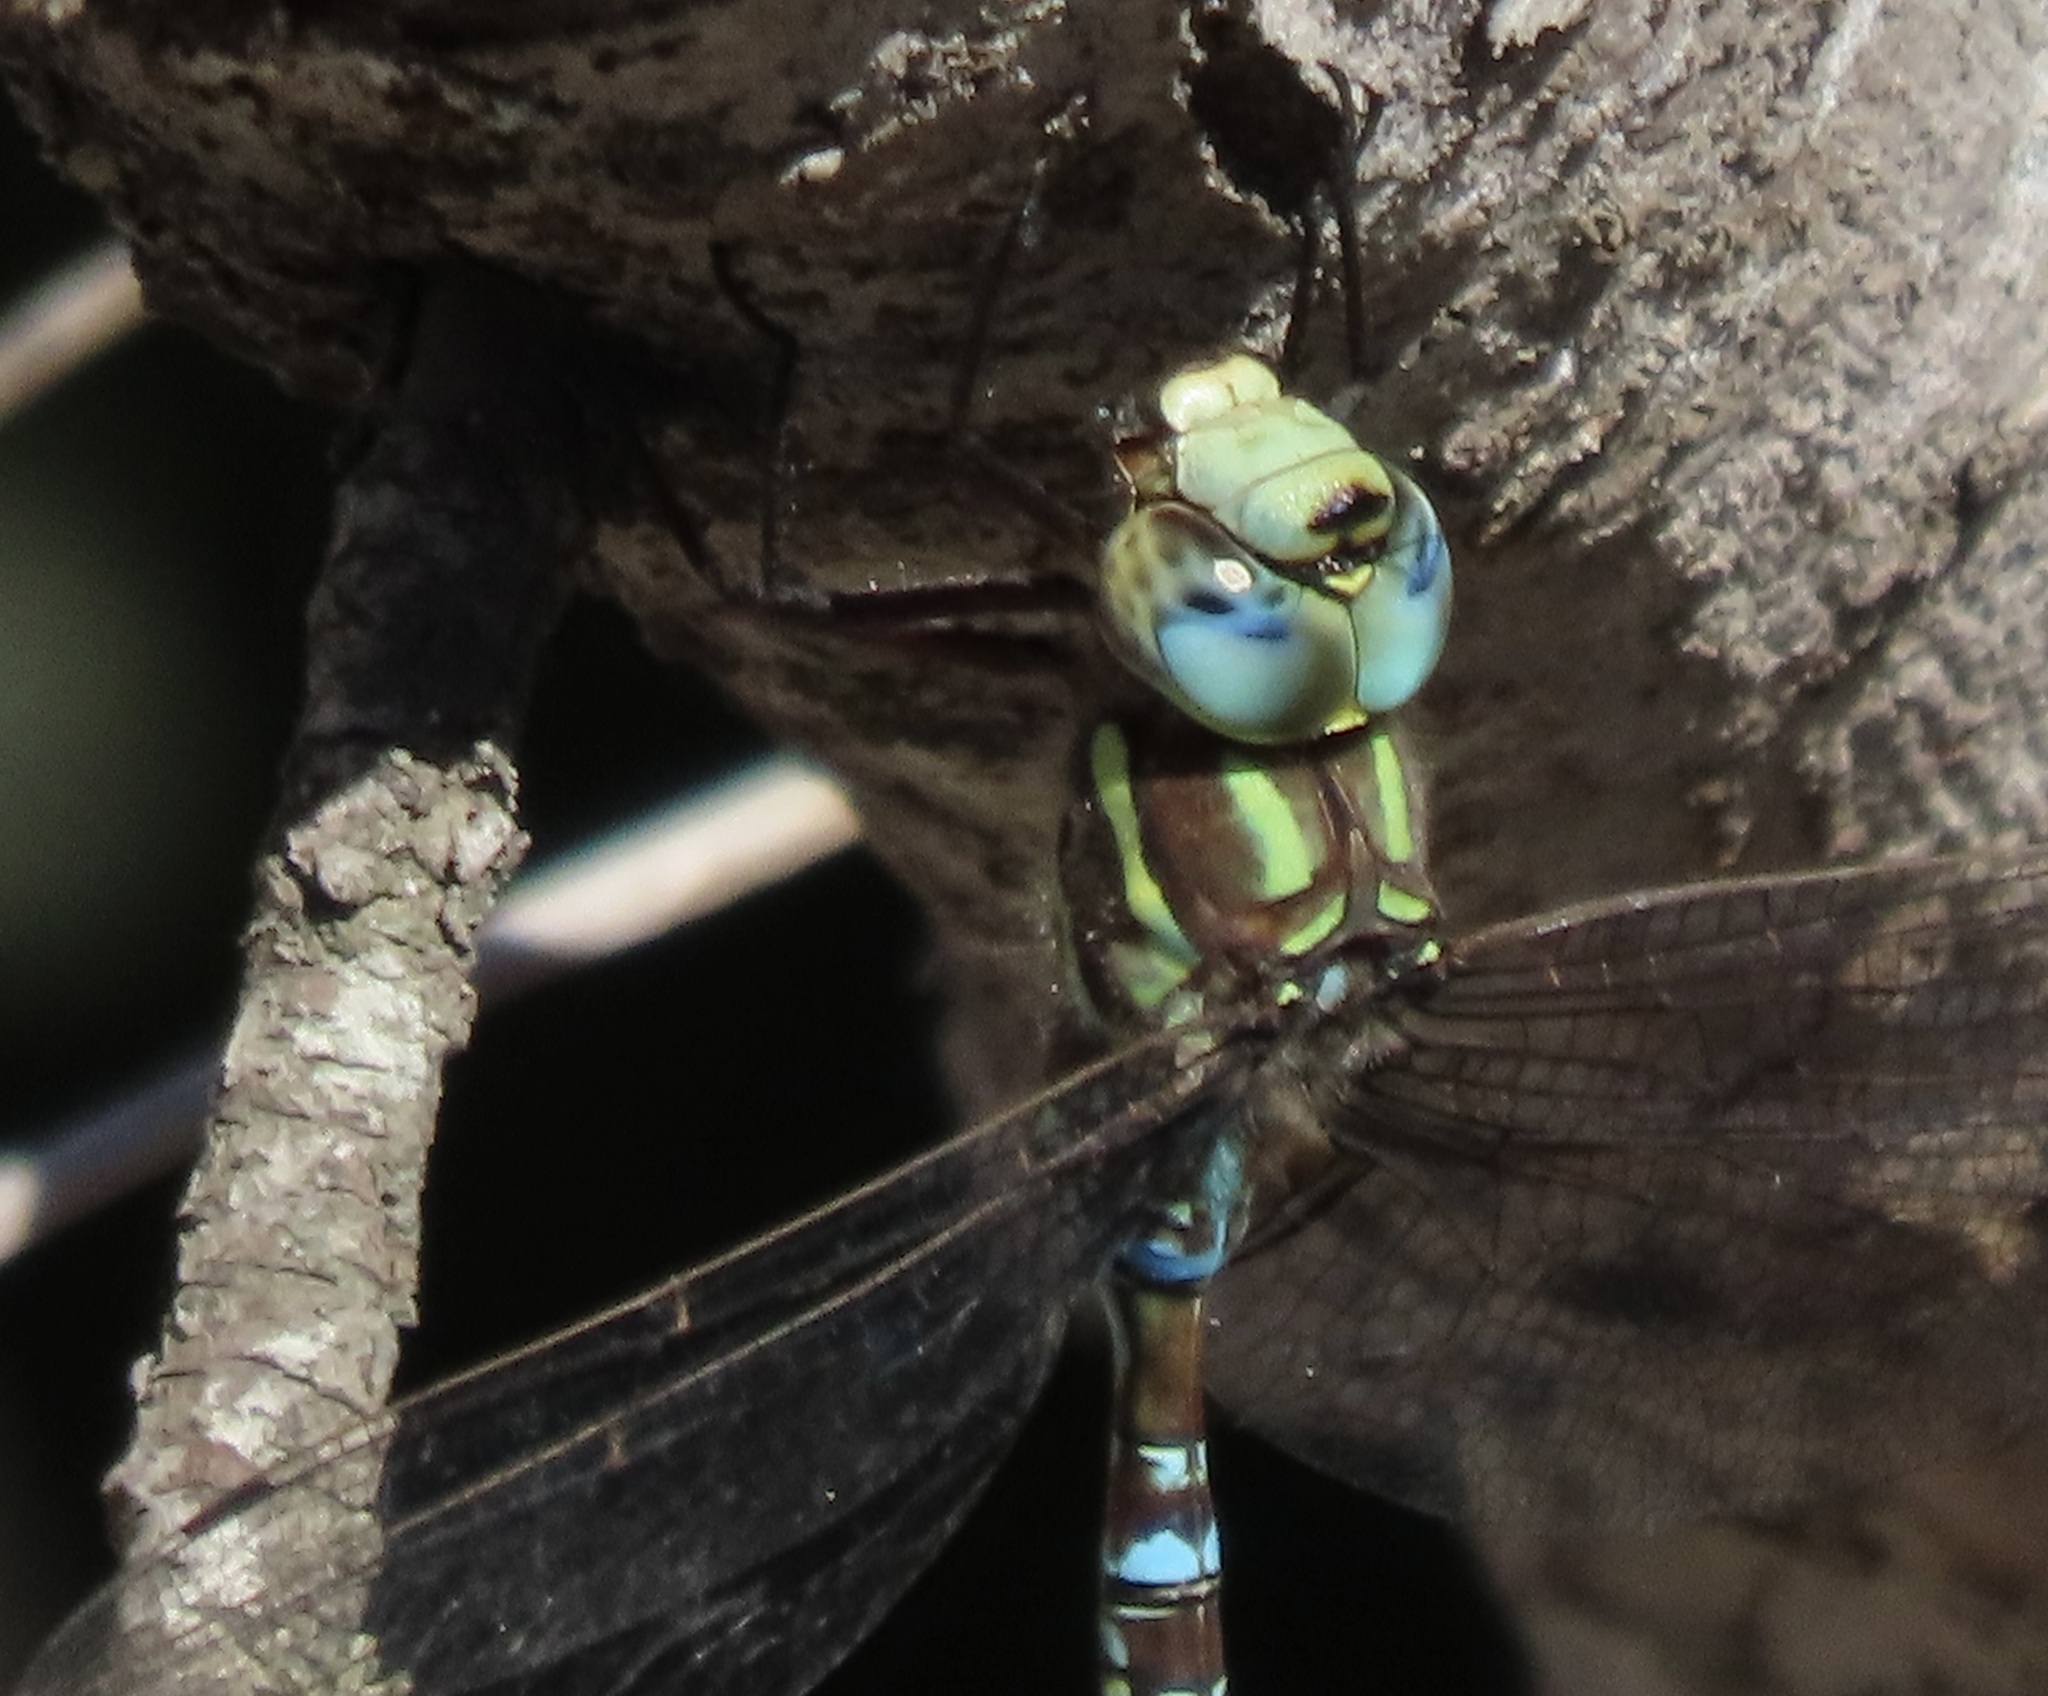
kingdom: Animalia
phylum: Arthropoda
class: Insecta
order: Odonata
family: Aeshnidae
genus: Aeshna
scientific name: Aeshna umbrosa
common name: Shadow darner
